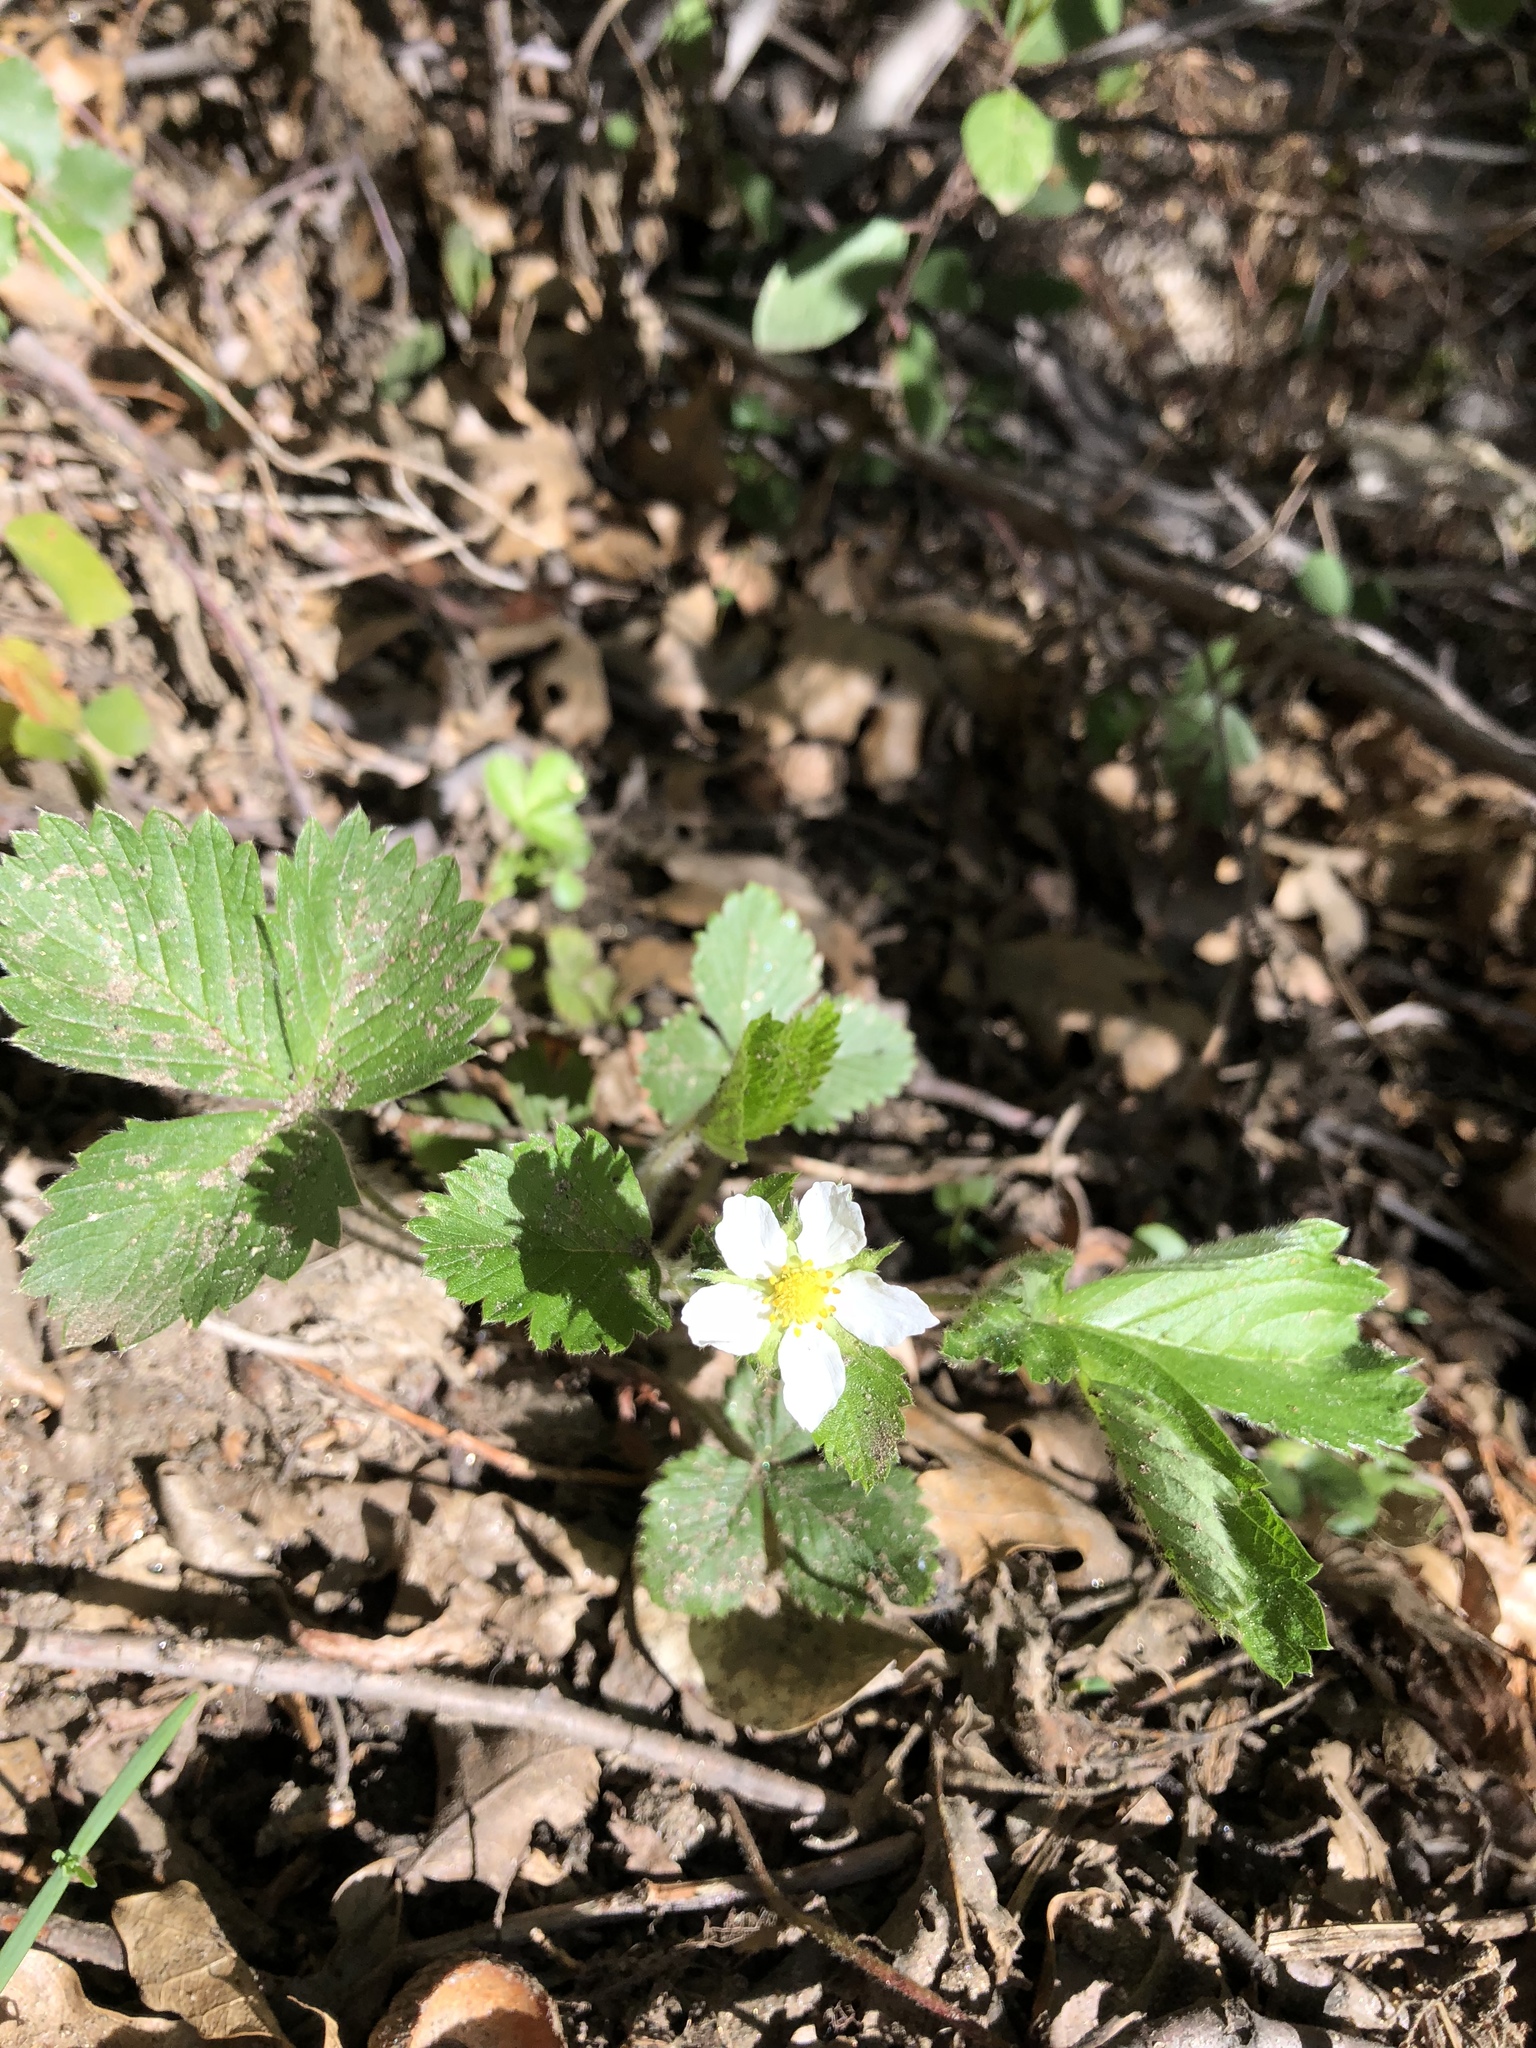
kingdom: Plantae
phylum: Tracheophyta
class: Magnoliopsida
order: Rosales
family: Rosaceae
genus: Fragaria
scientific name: Fragaria vesca
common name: Wild strawberry
